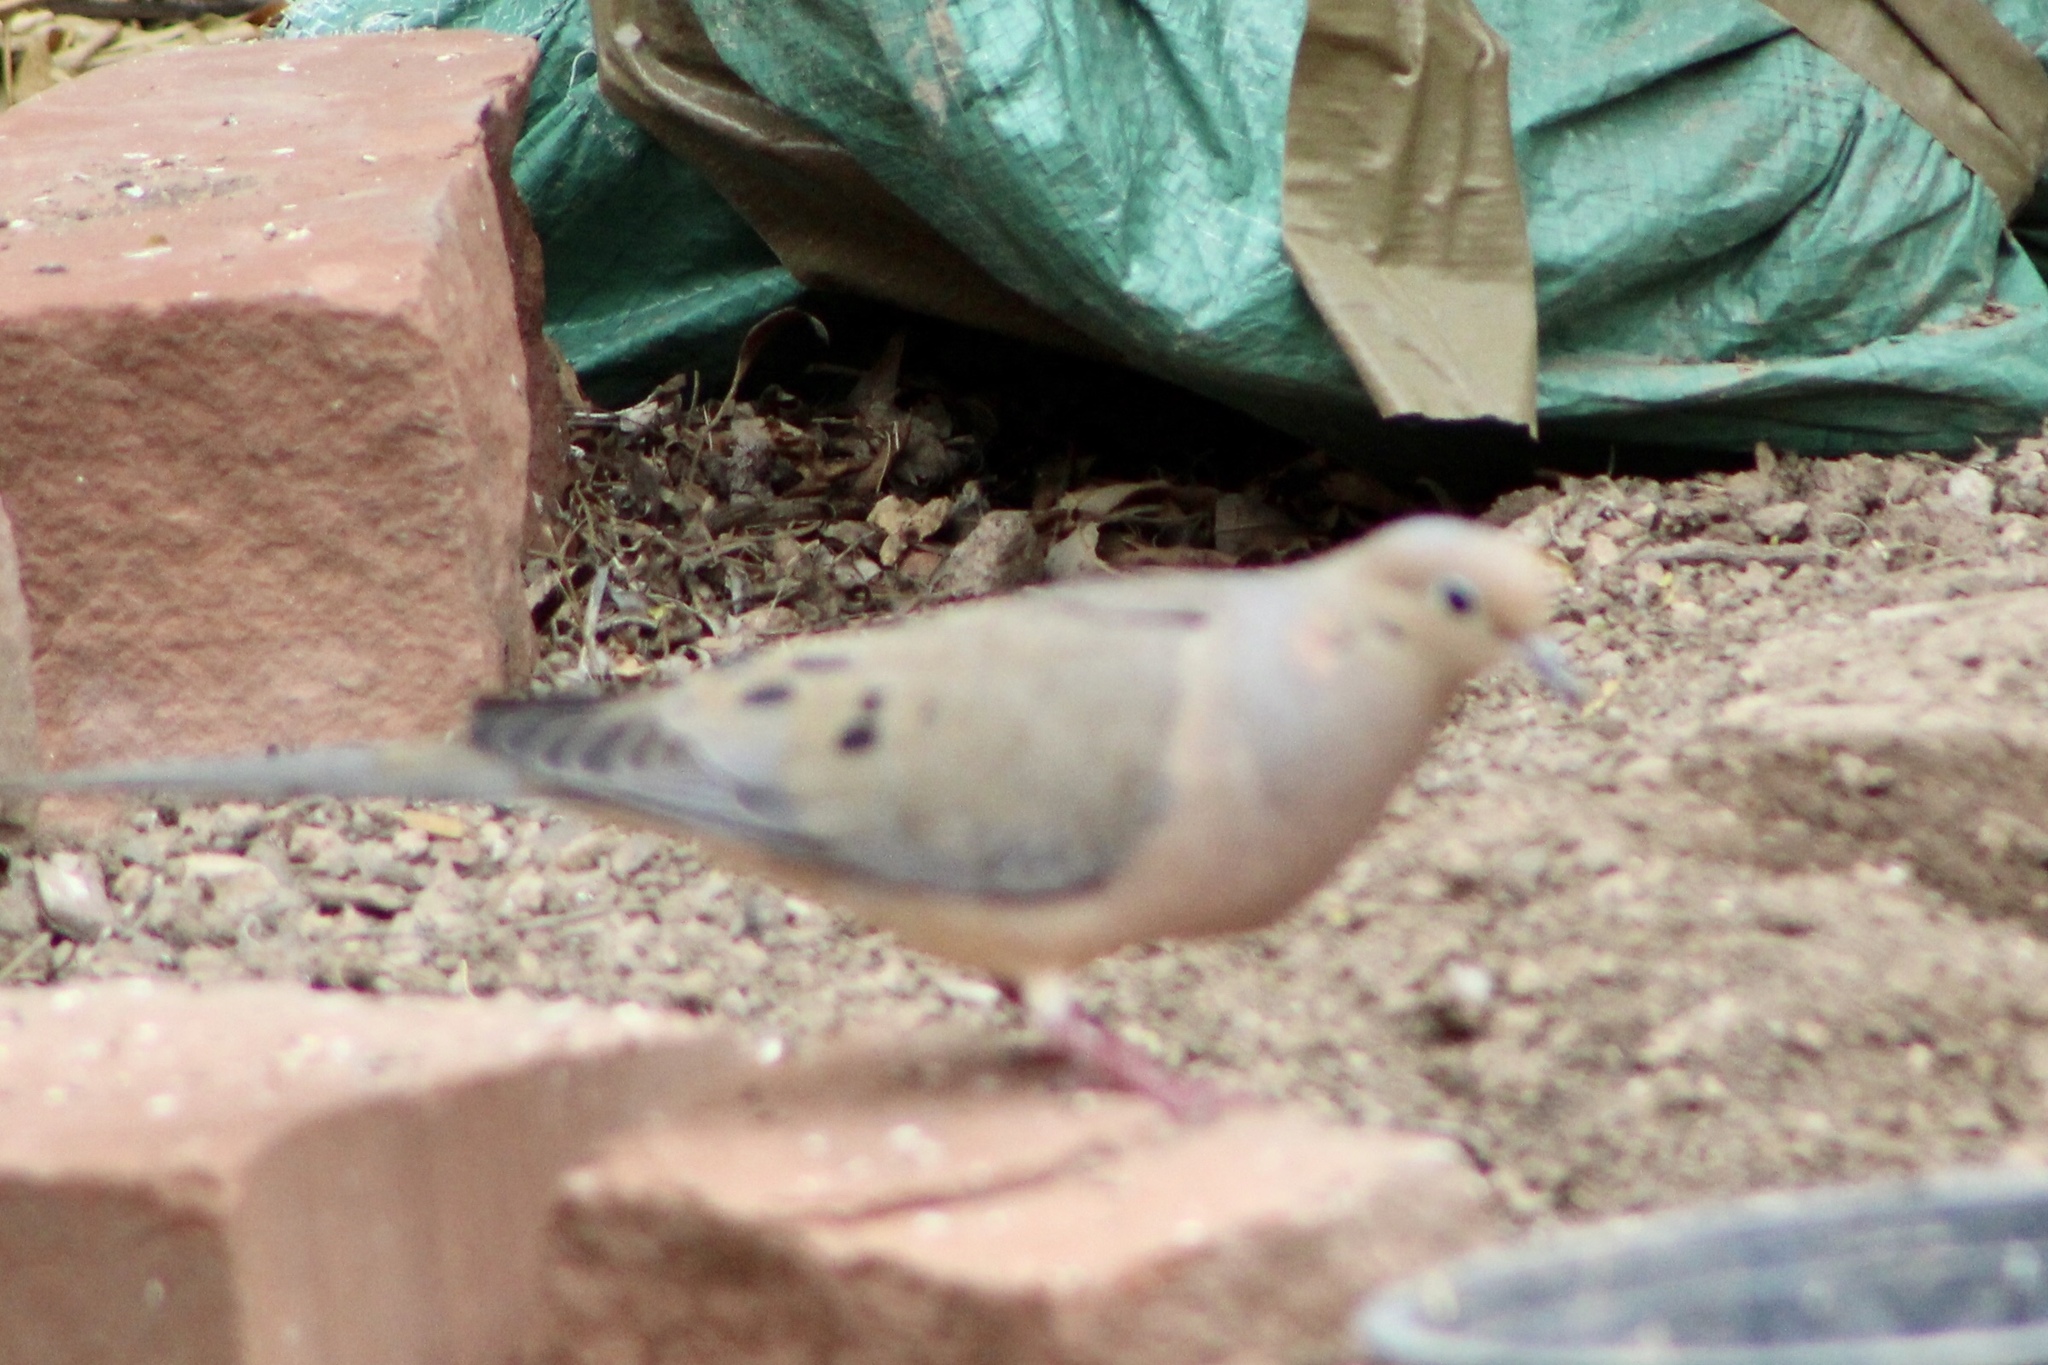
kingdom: Animalia
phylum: Chordata
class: Aves
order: Columbiformes
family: Columbidae
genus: Zenaida
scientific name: Zenaida macroura
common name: Mourning dove
